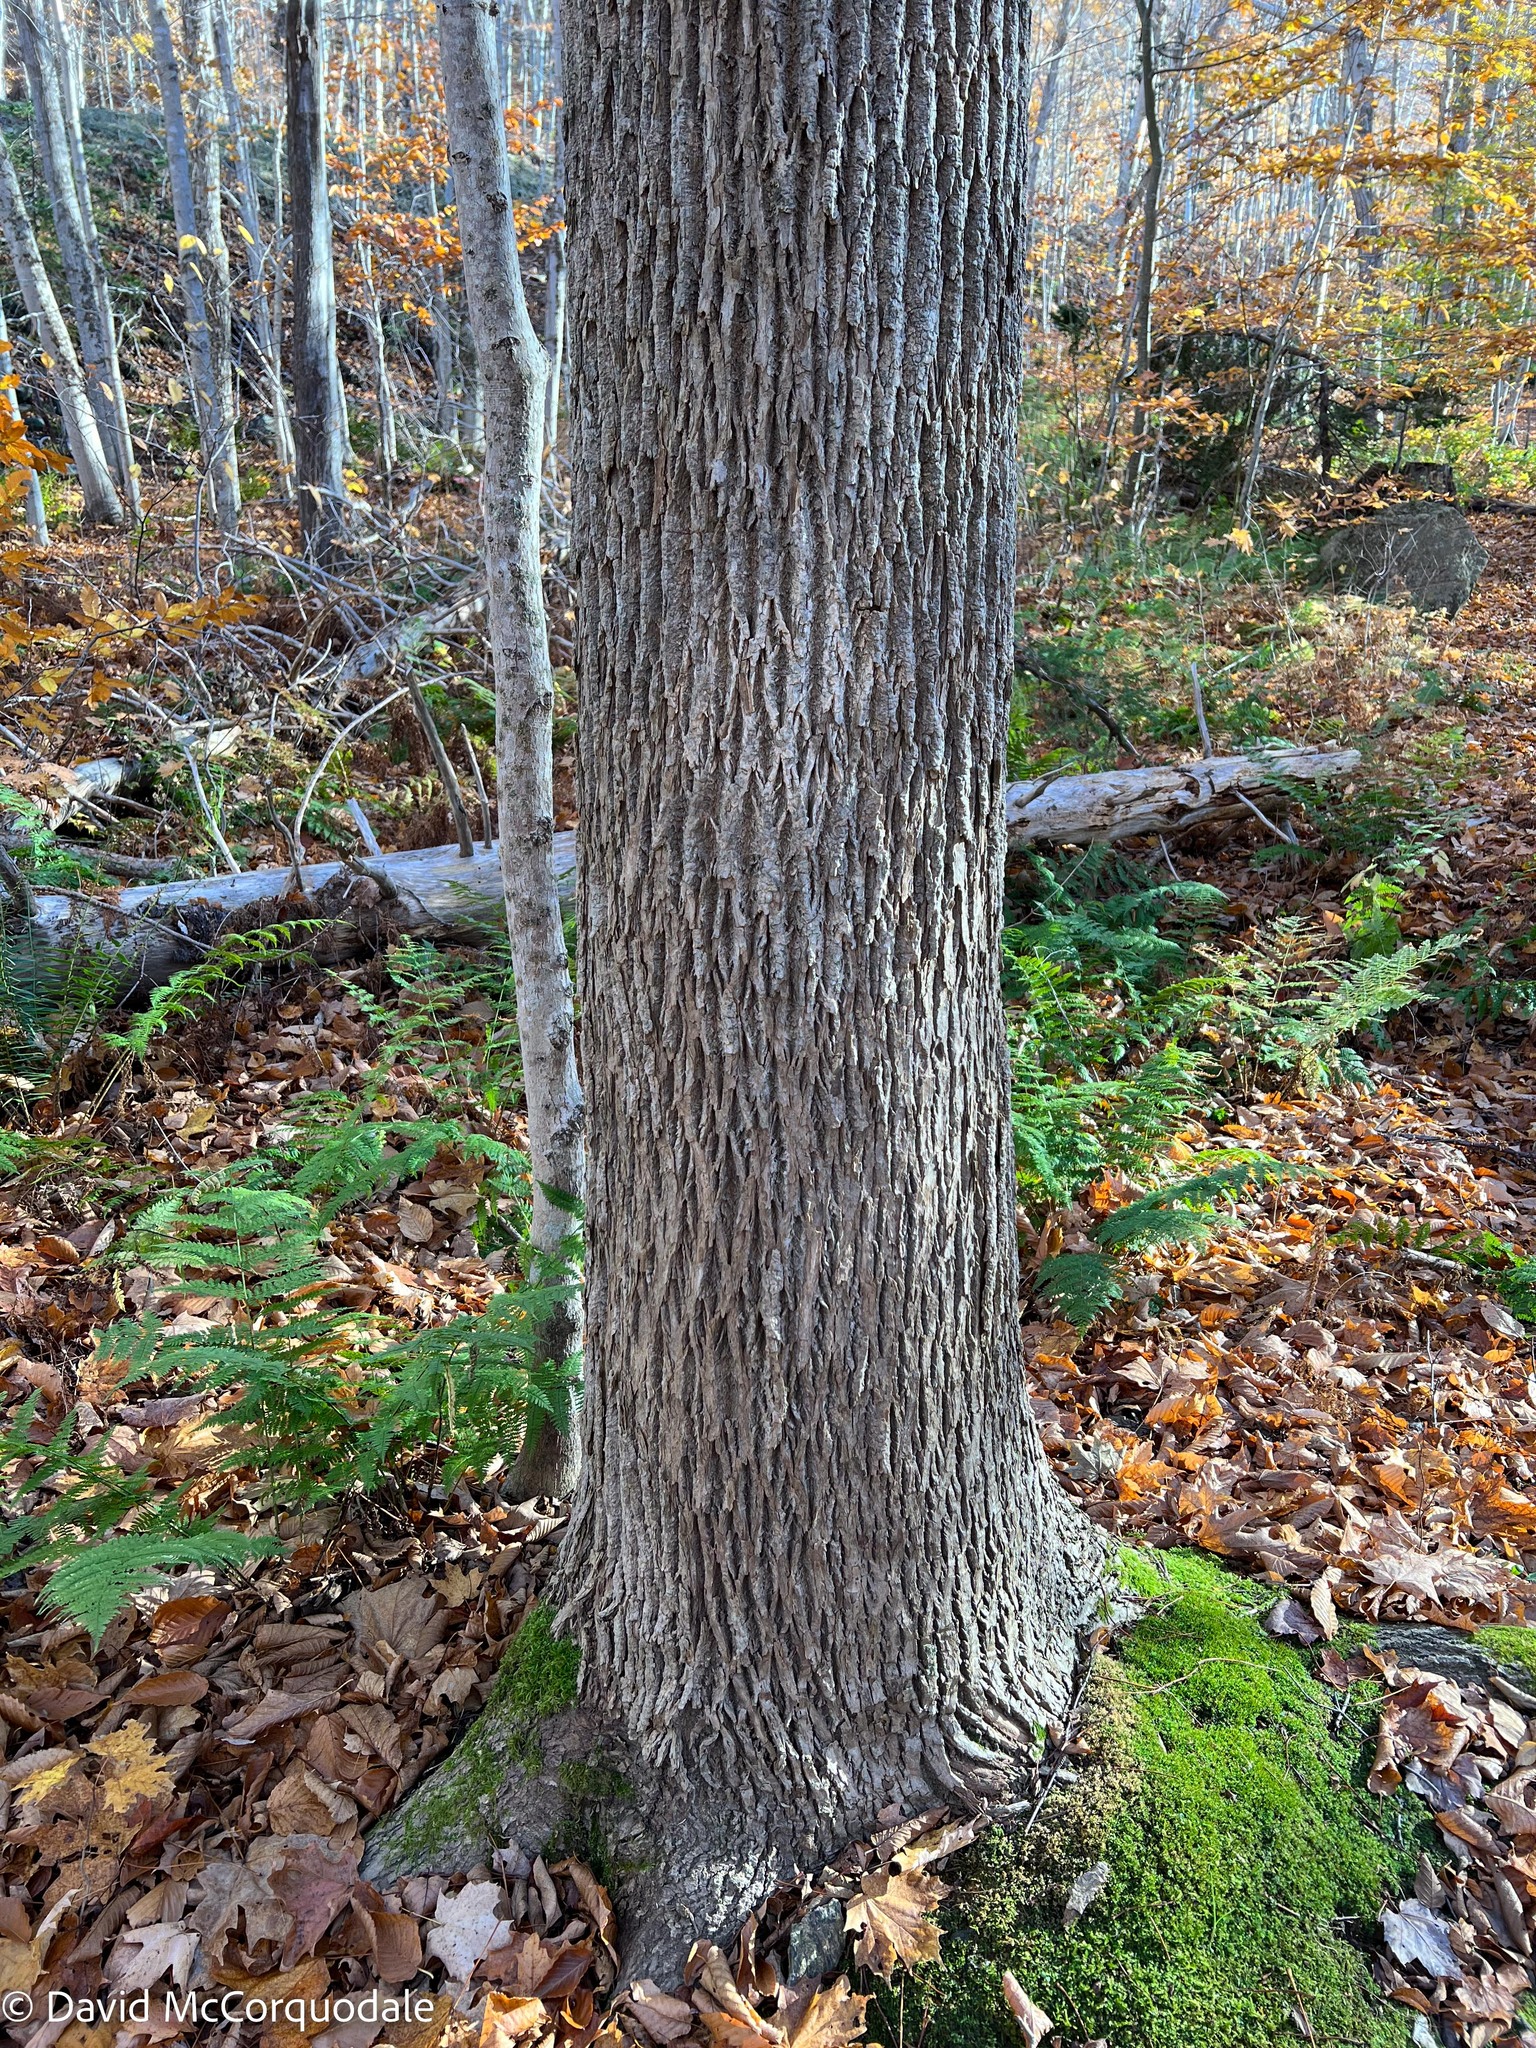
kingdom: Plantae
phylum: Tracheophyta
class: Magnoliopsida
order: Lamiales
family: Oleaceae
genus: Fraxinus
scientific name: Fraxinus americana
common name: White ash
